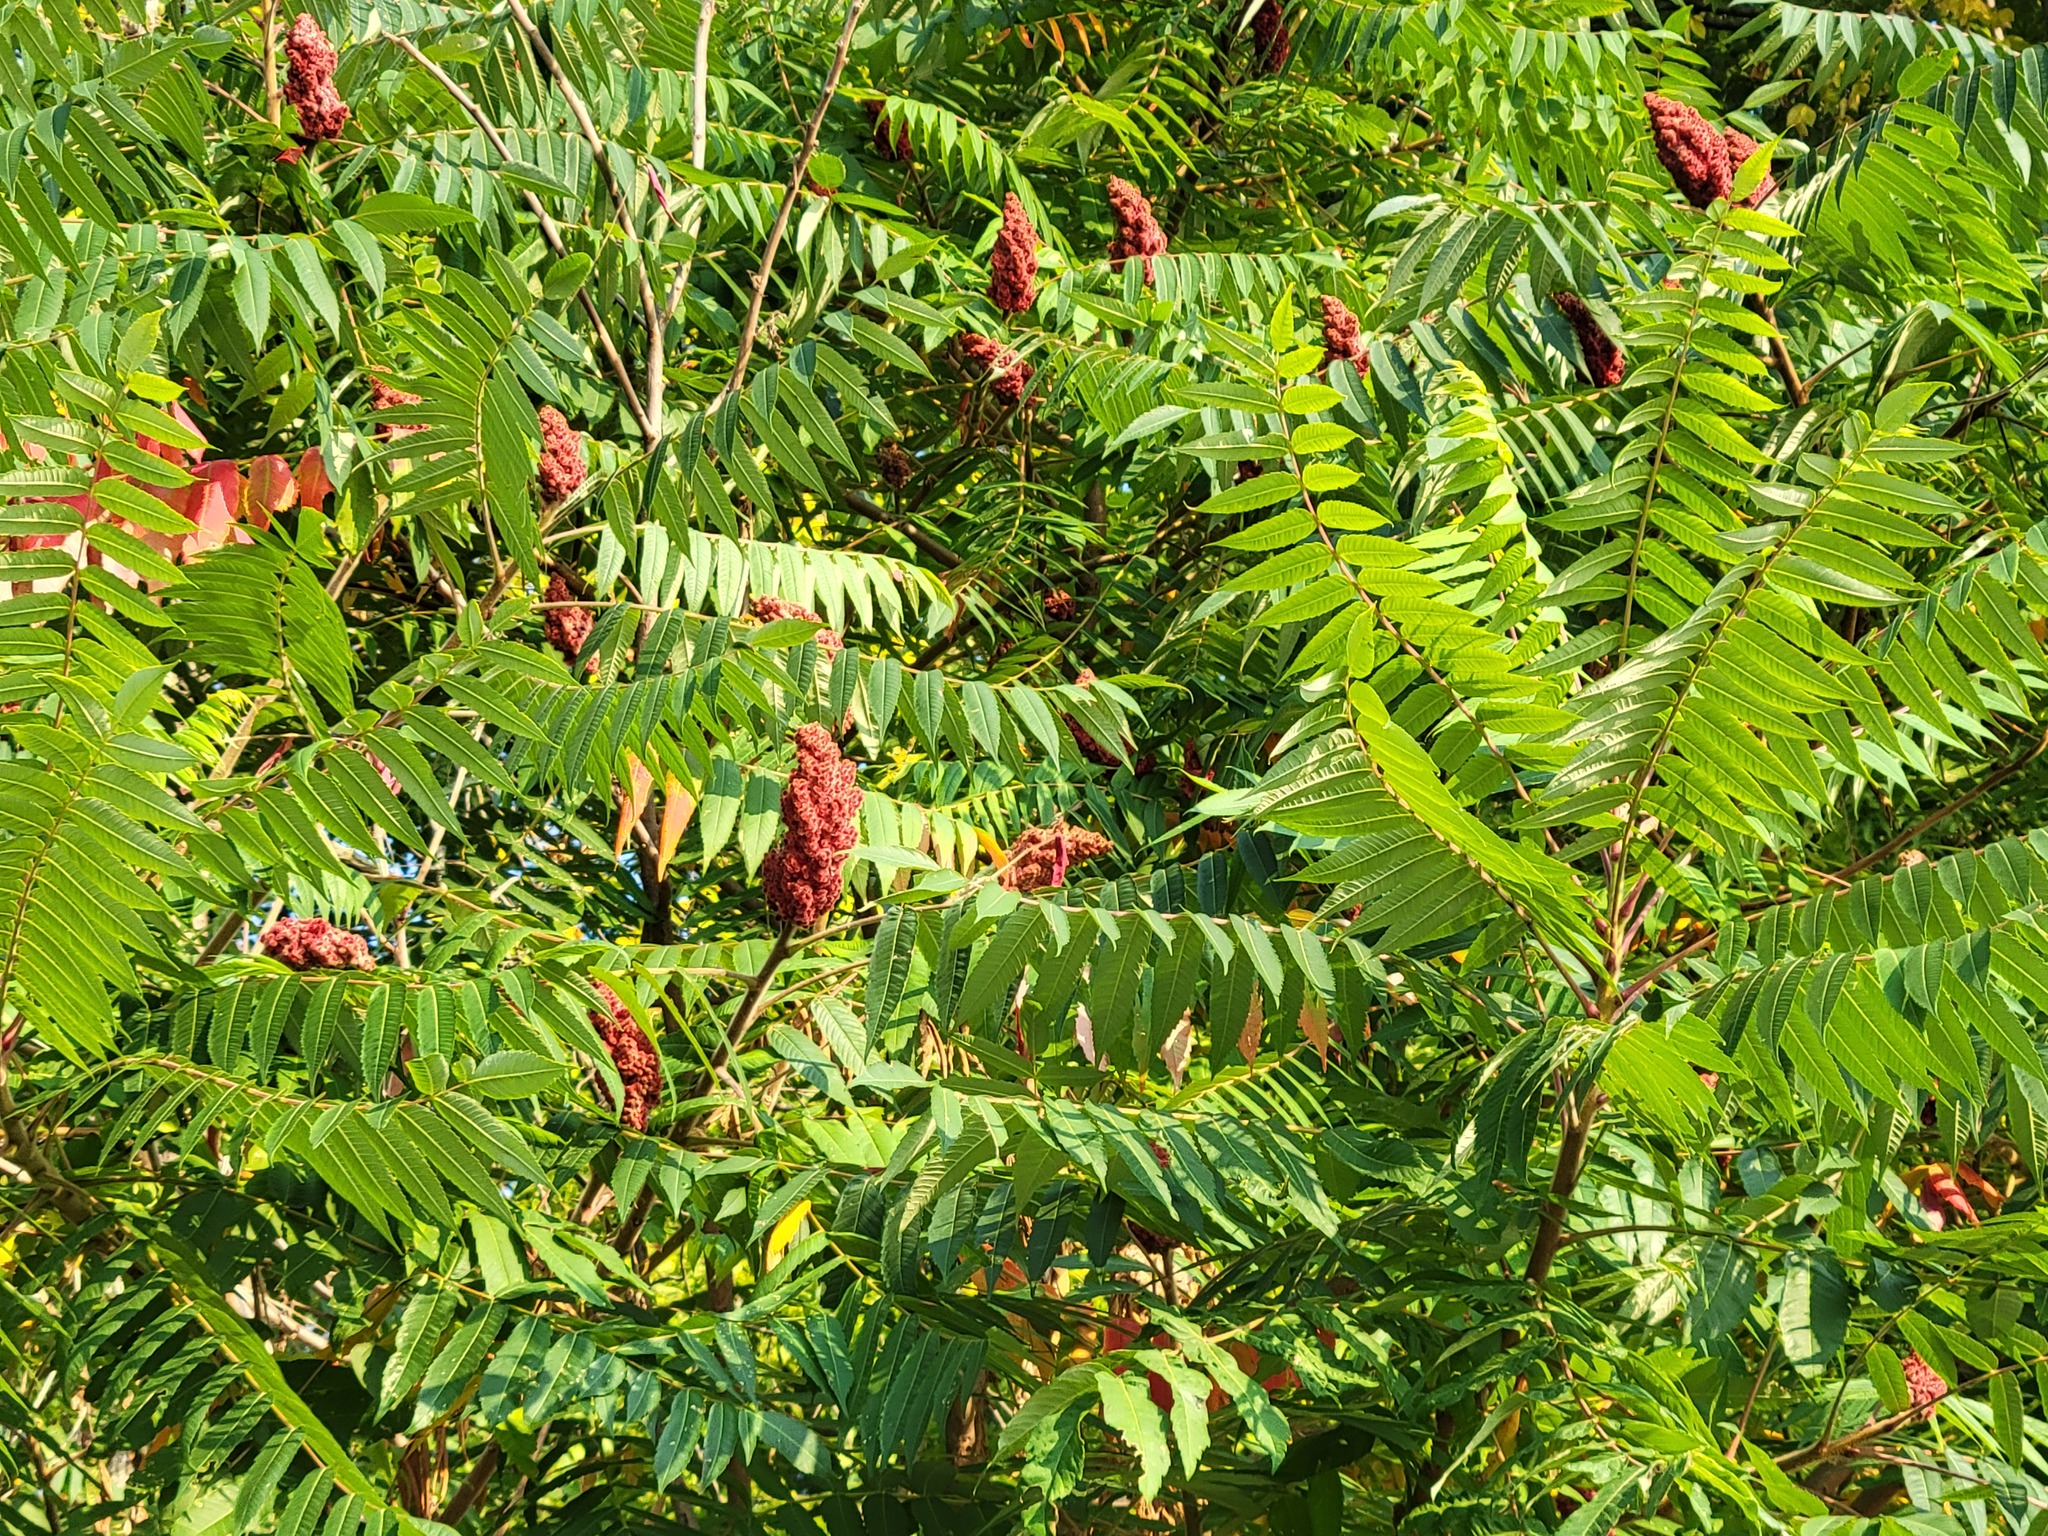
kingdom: Plantae
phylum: Tracheophyta
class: Magnoliopsida
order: Sapindales
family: Anacardiaceae
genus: Rhus
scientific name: Rhus typhina
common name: Staghorn sumac
